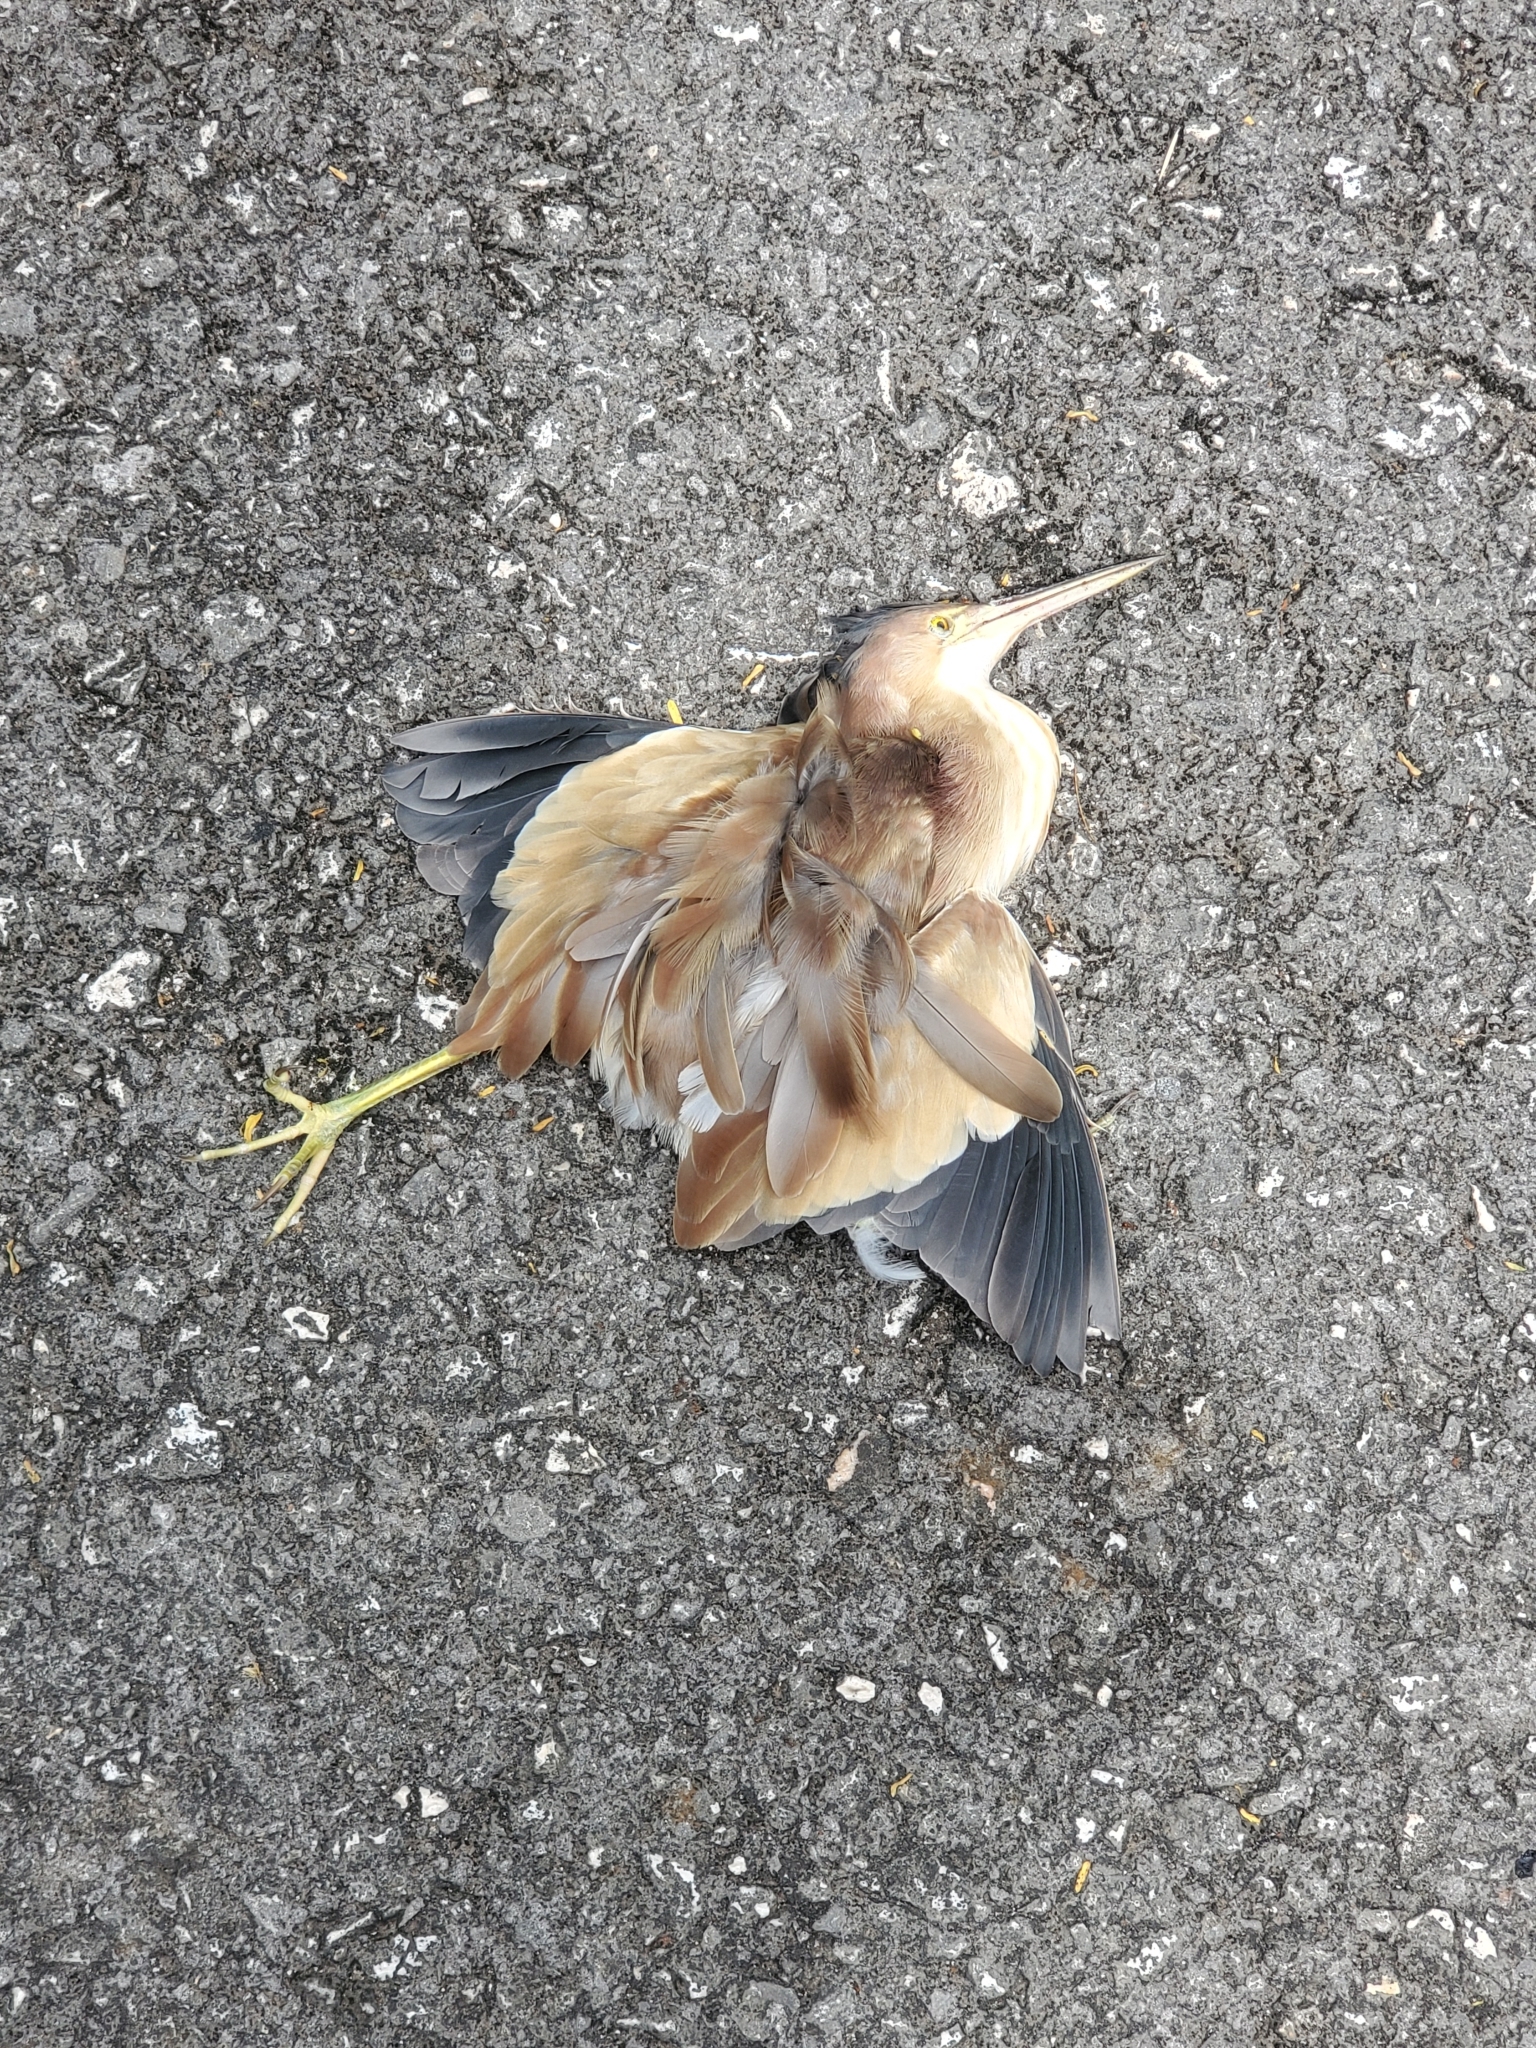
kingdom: Animalia
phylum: Chordata
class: Aves
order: Pelecaniformes
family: Ardeidae
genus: Ixobrychus
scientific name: Ixobrychus sinensis
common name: Yellow bittern
